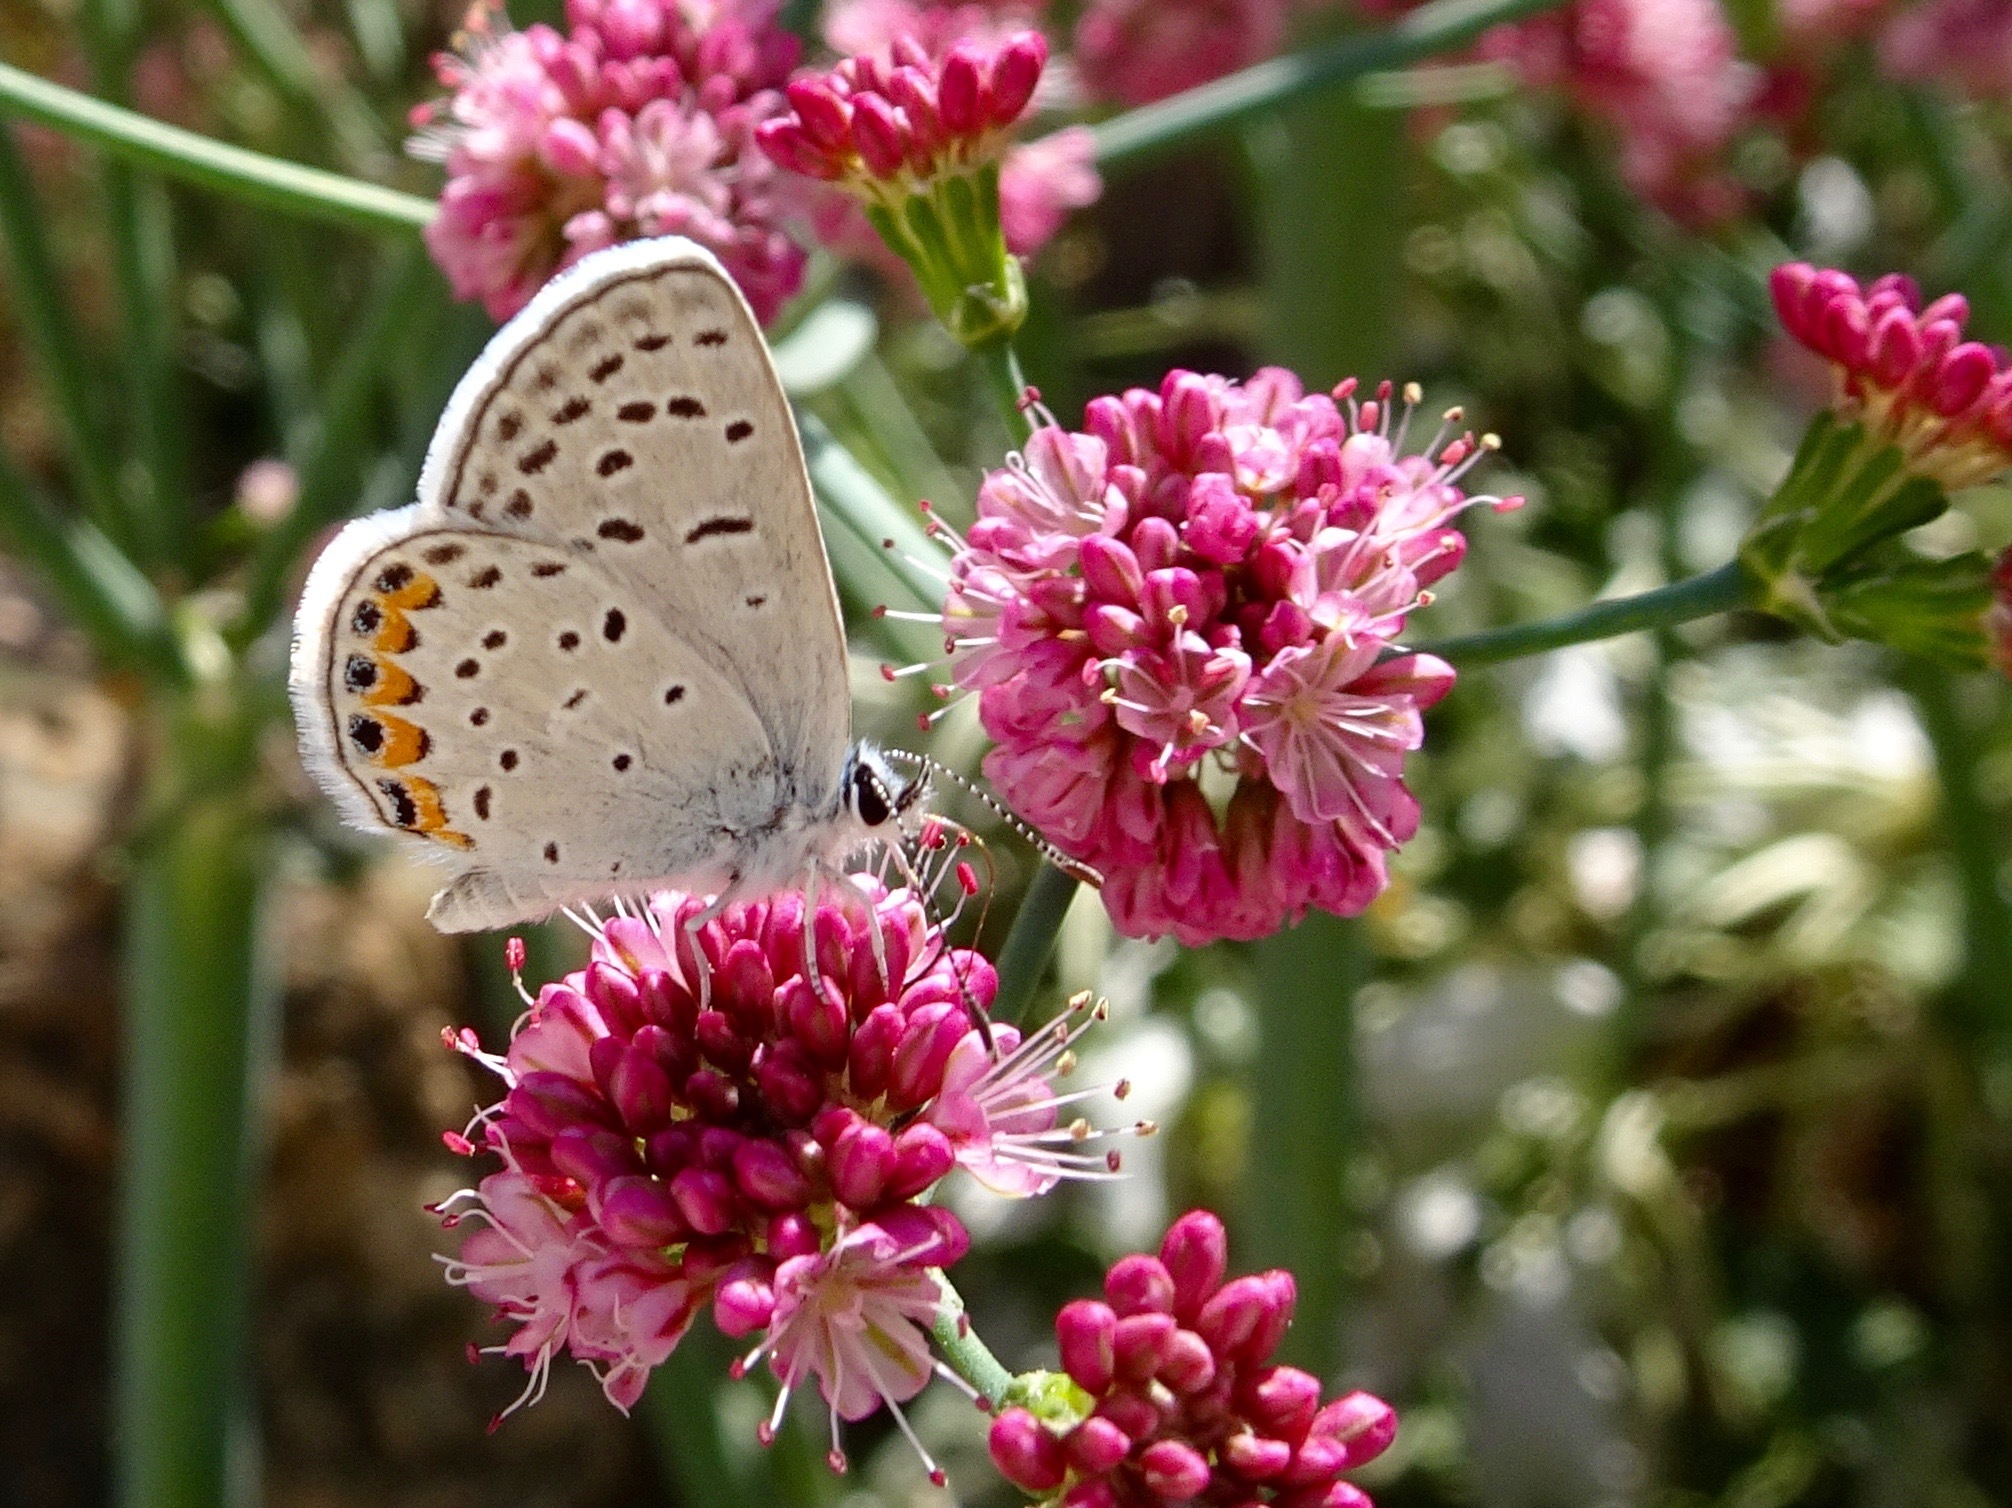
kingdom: Animalia
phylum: Arthropoda
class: Insecta
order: Lepidoptera
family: Lycaenidae
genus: Icaricia
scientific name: Icaricia acmon
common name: Acmon blue
